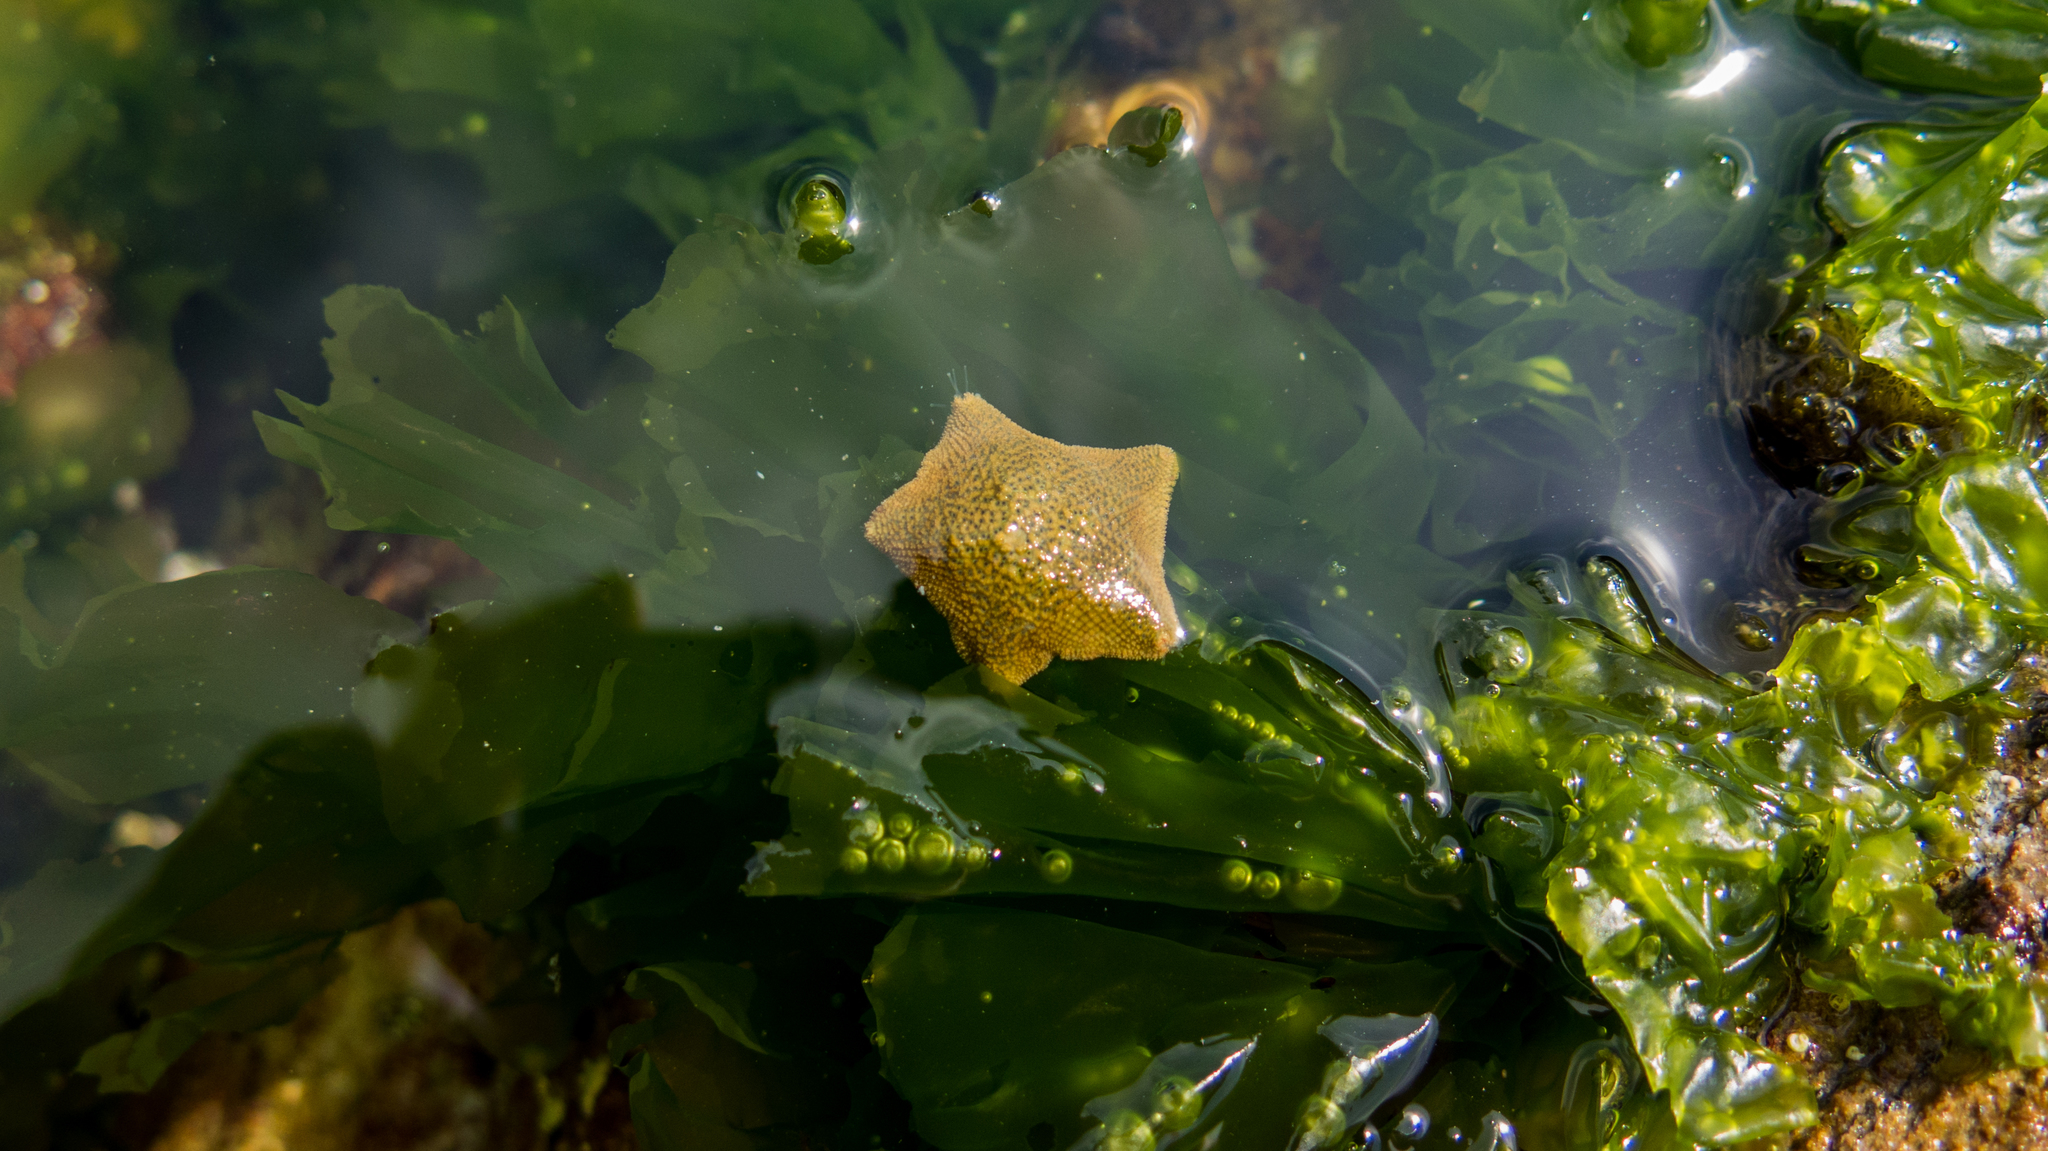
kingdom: Animalia
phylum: Echinodermata
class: Asteroidea
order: Valvatida
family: Asterinidae
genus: Parvulastra
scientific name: Parvulastra exigua
